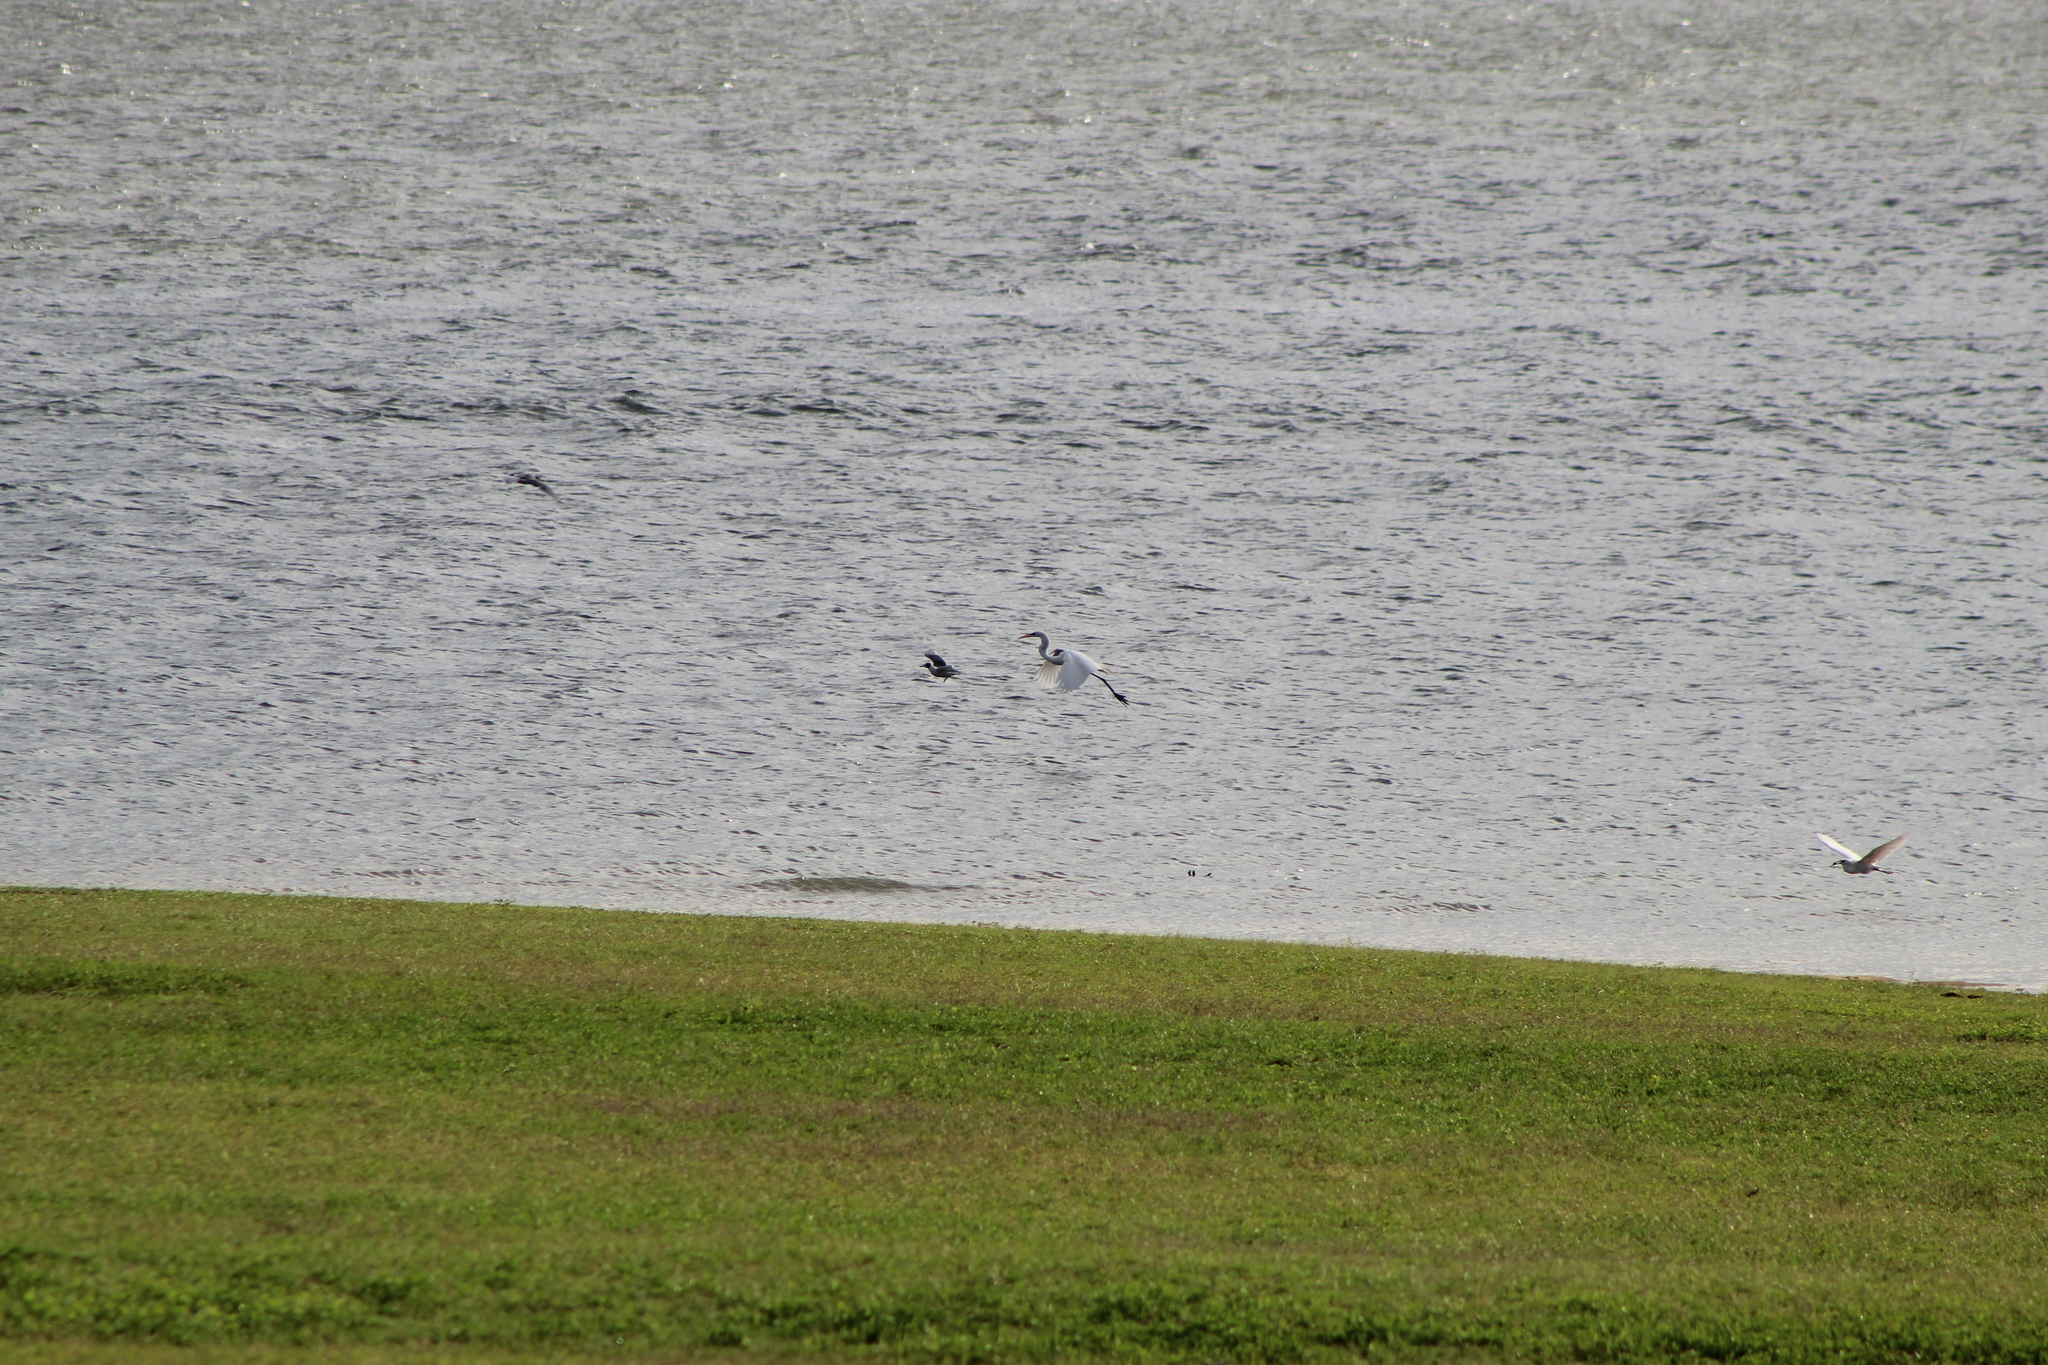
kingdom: Animalia
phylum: Chordata
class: Aves
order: Pelecaniformes
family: Ardeidae
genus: Egretta
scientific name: Egretta thula
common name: Snowy egret
